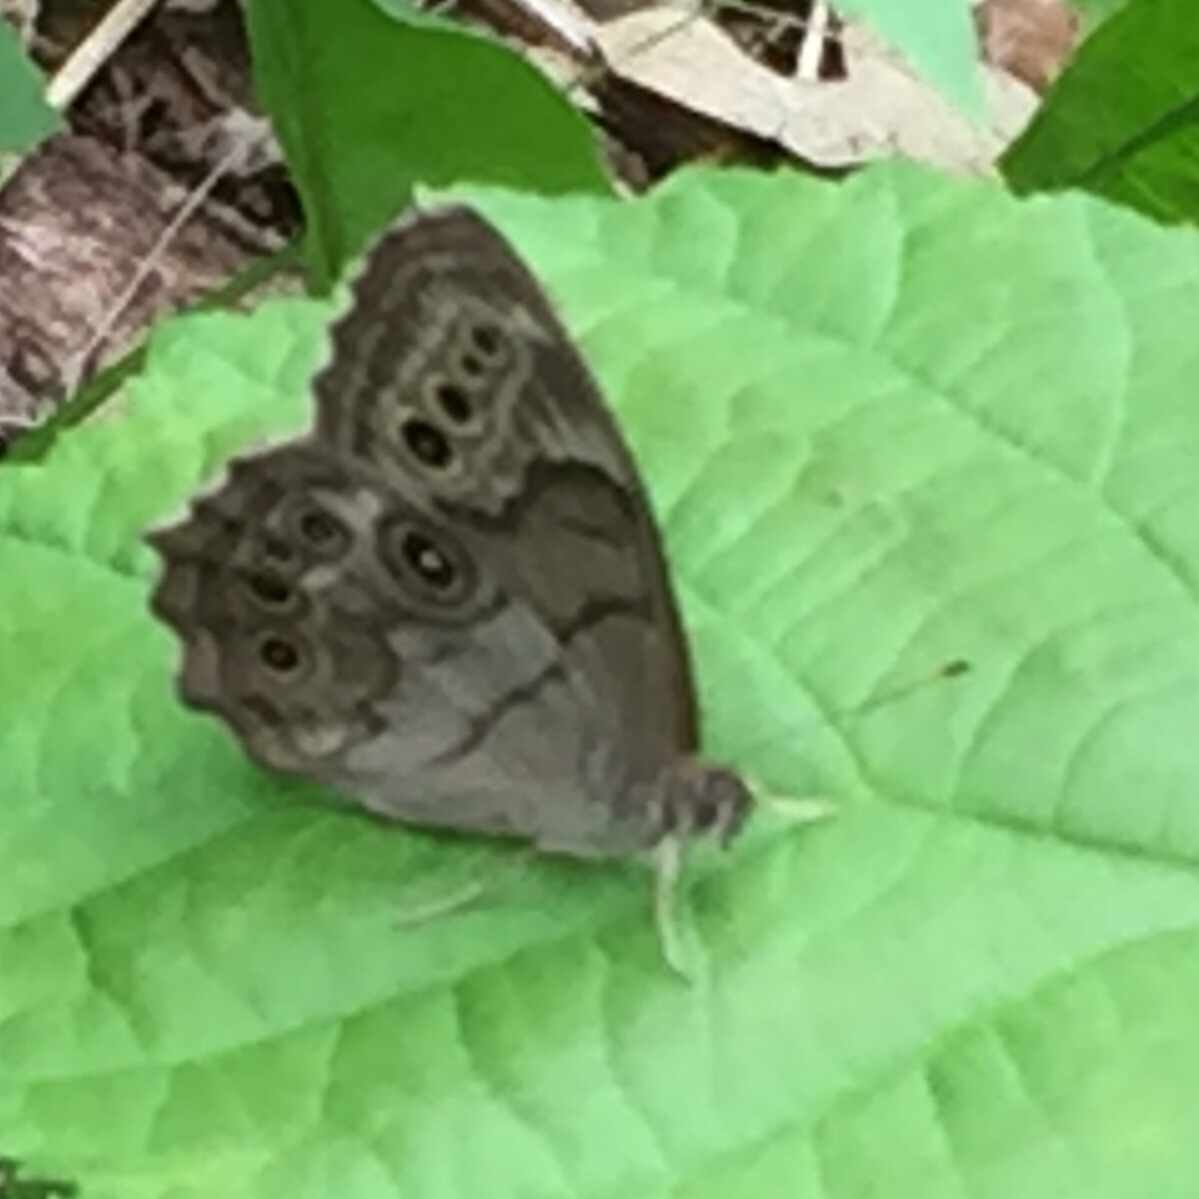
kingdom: Animalia
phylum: Arthropoda
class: Insecta
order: Lepidoptera
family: Nymphalidae
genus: Lethe
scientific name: Lethe anthedon
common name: Northern pearly-eye
